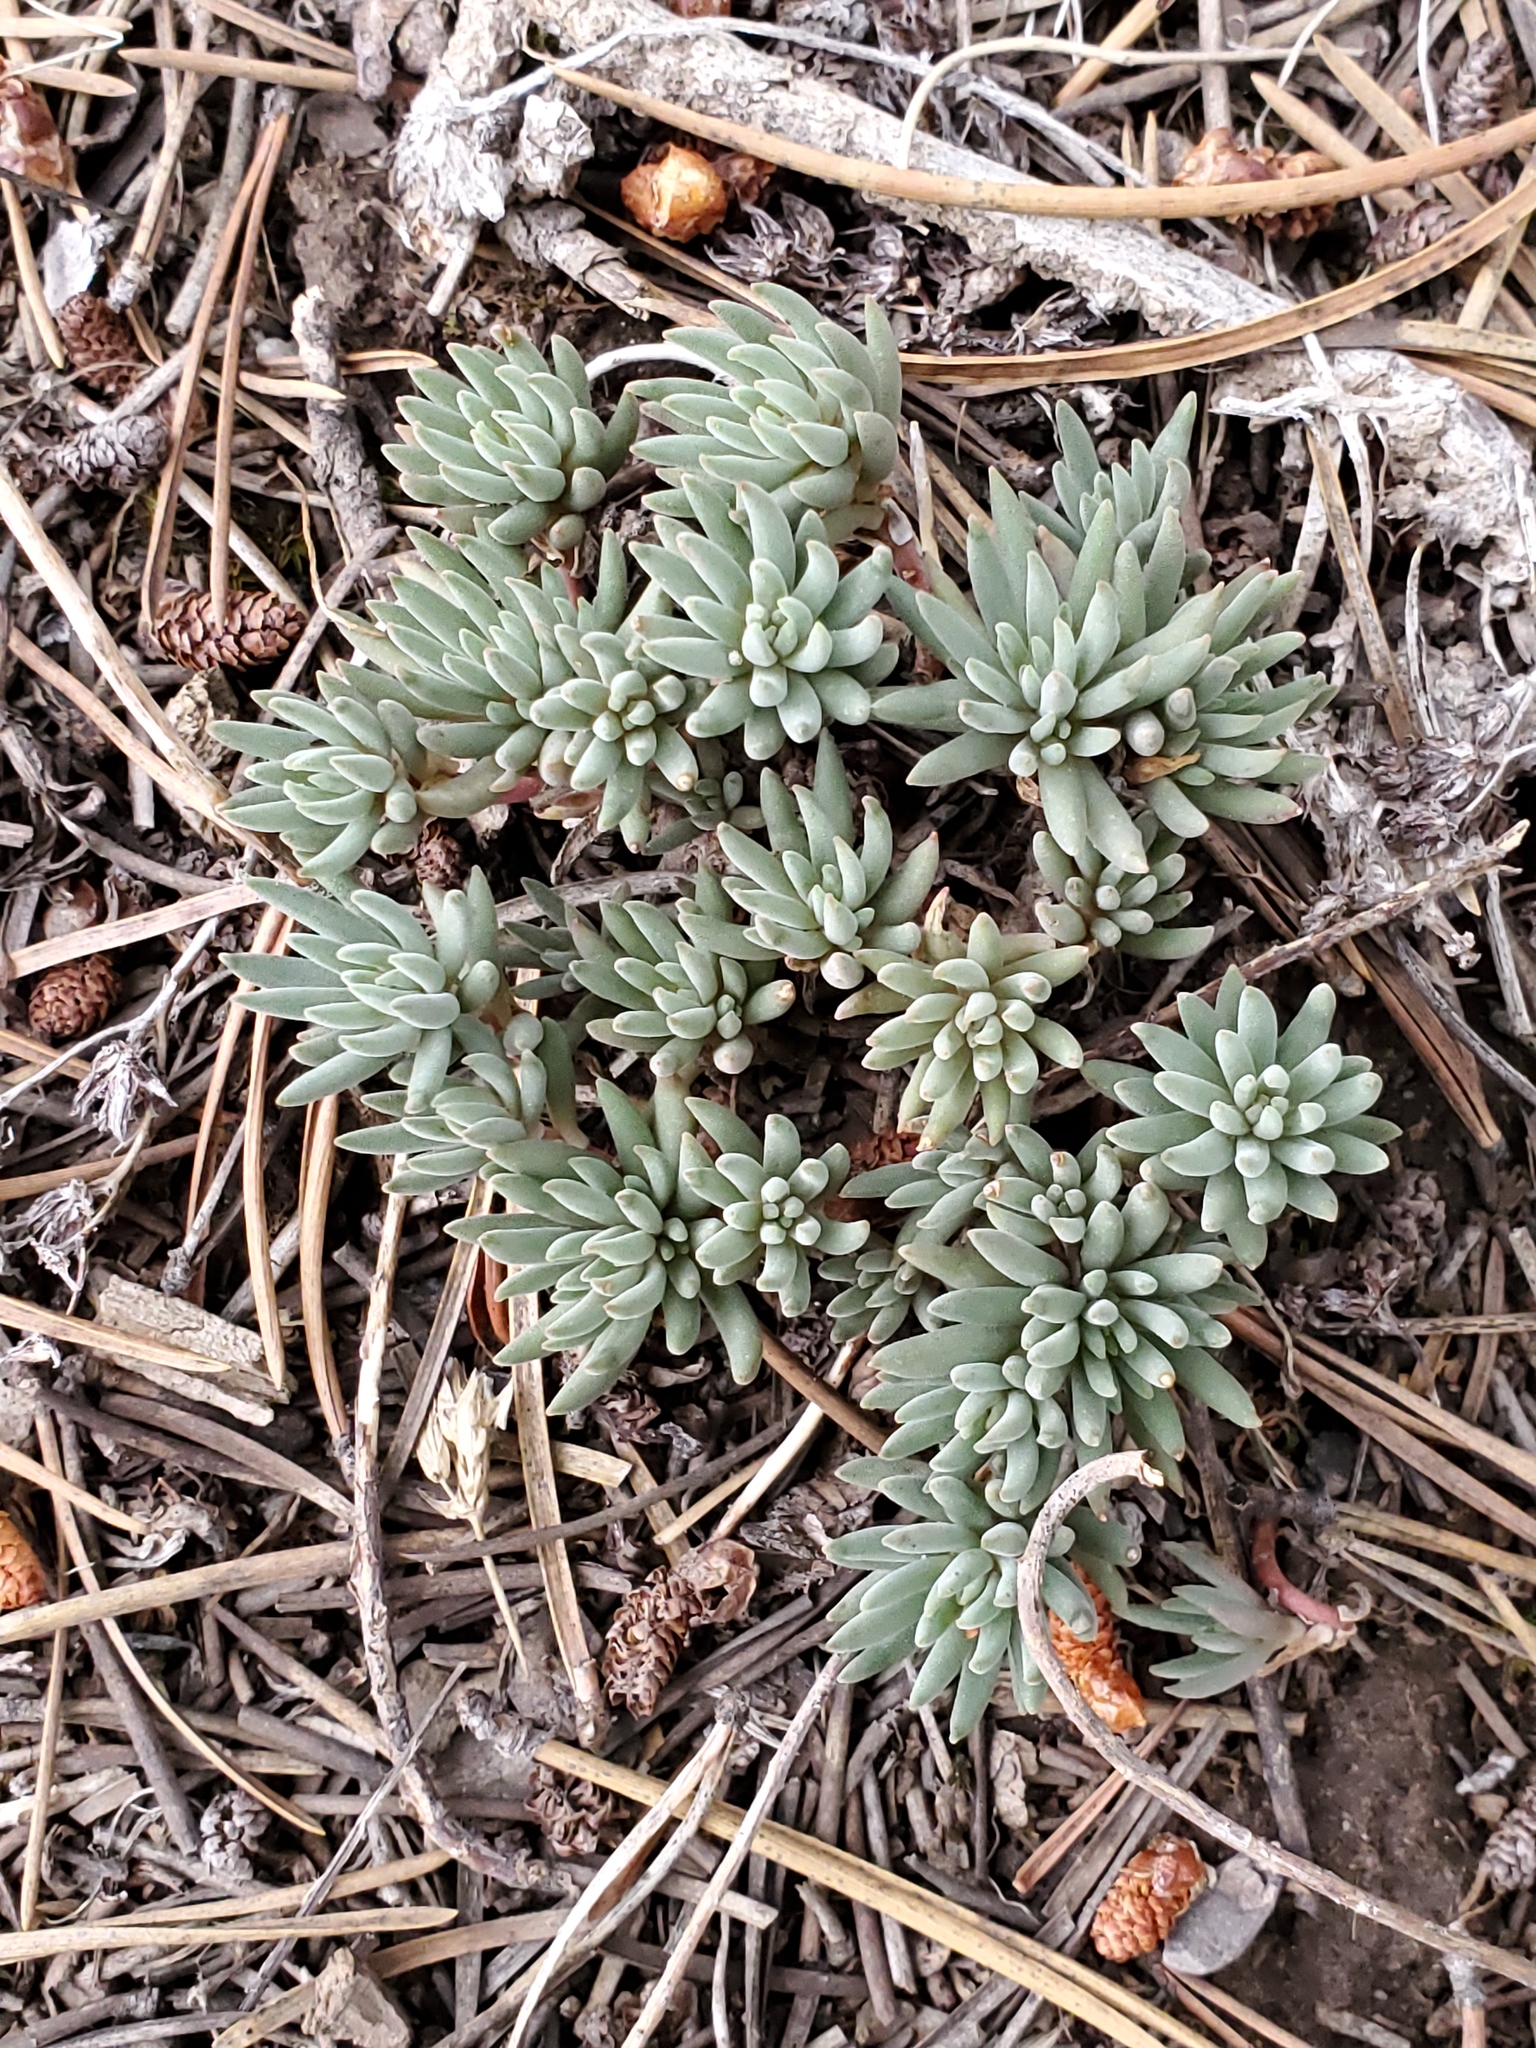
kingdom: Plantae
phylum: Tracheophyta
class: Magnoliopsida
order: Saxifragales
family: Crassulaceae
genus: Sedum
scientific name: Sedum lanceolatum
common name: Common stonecrop
